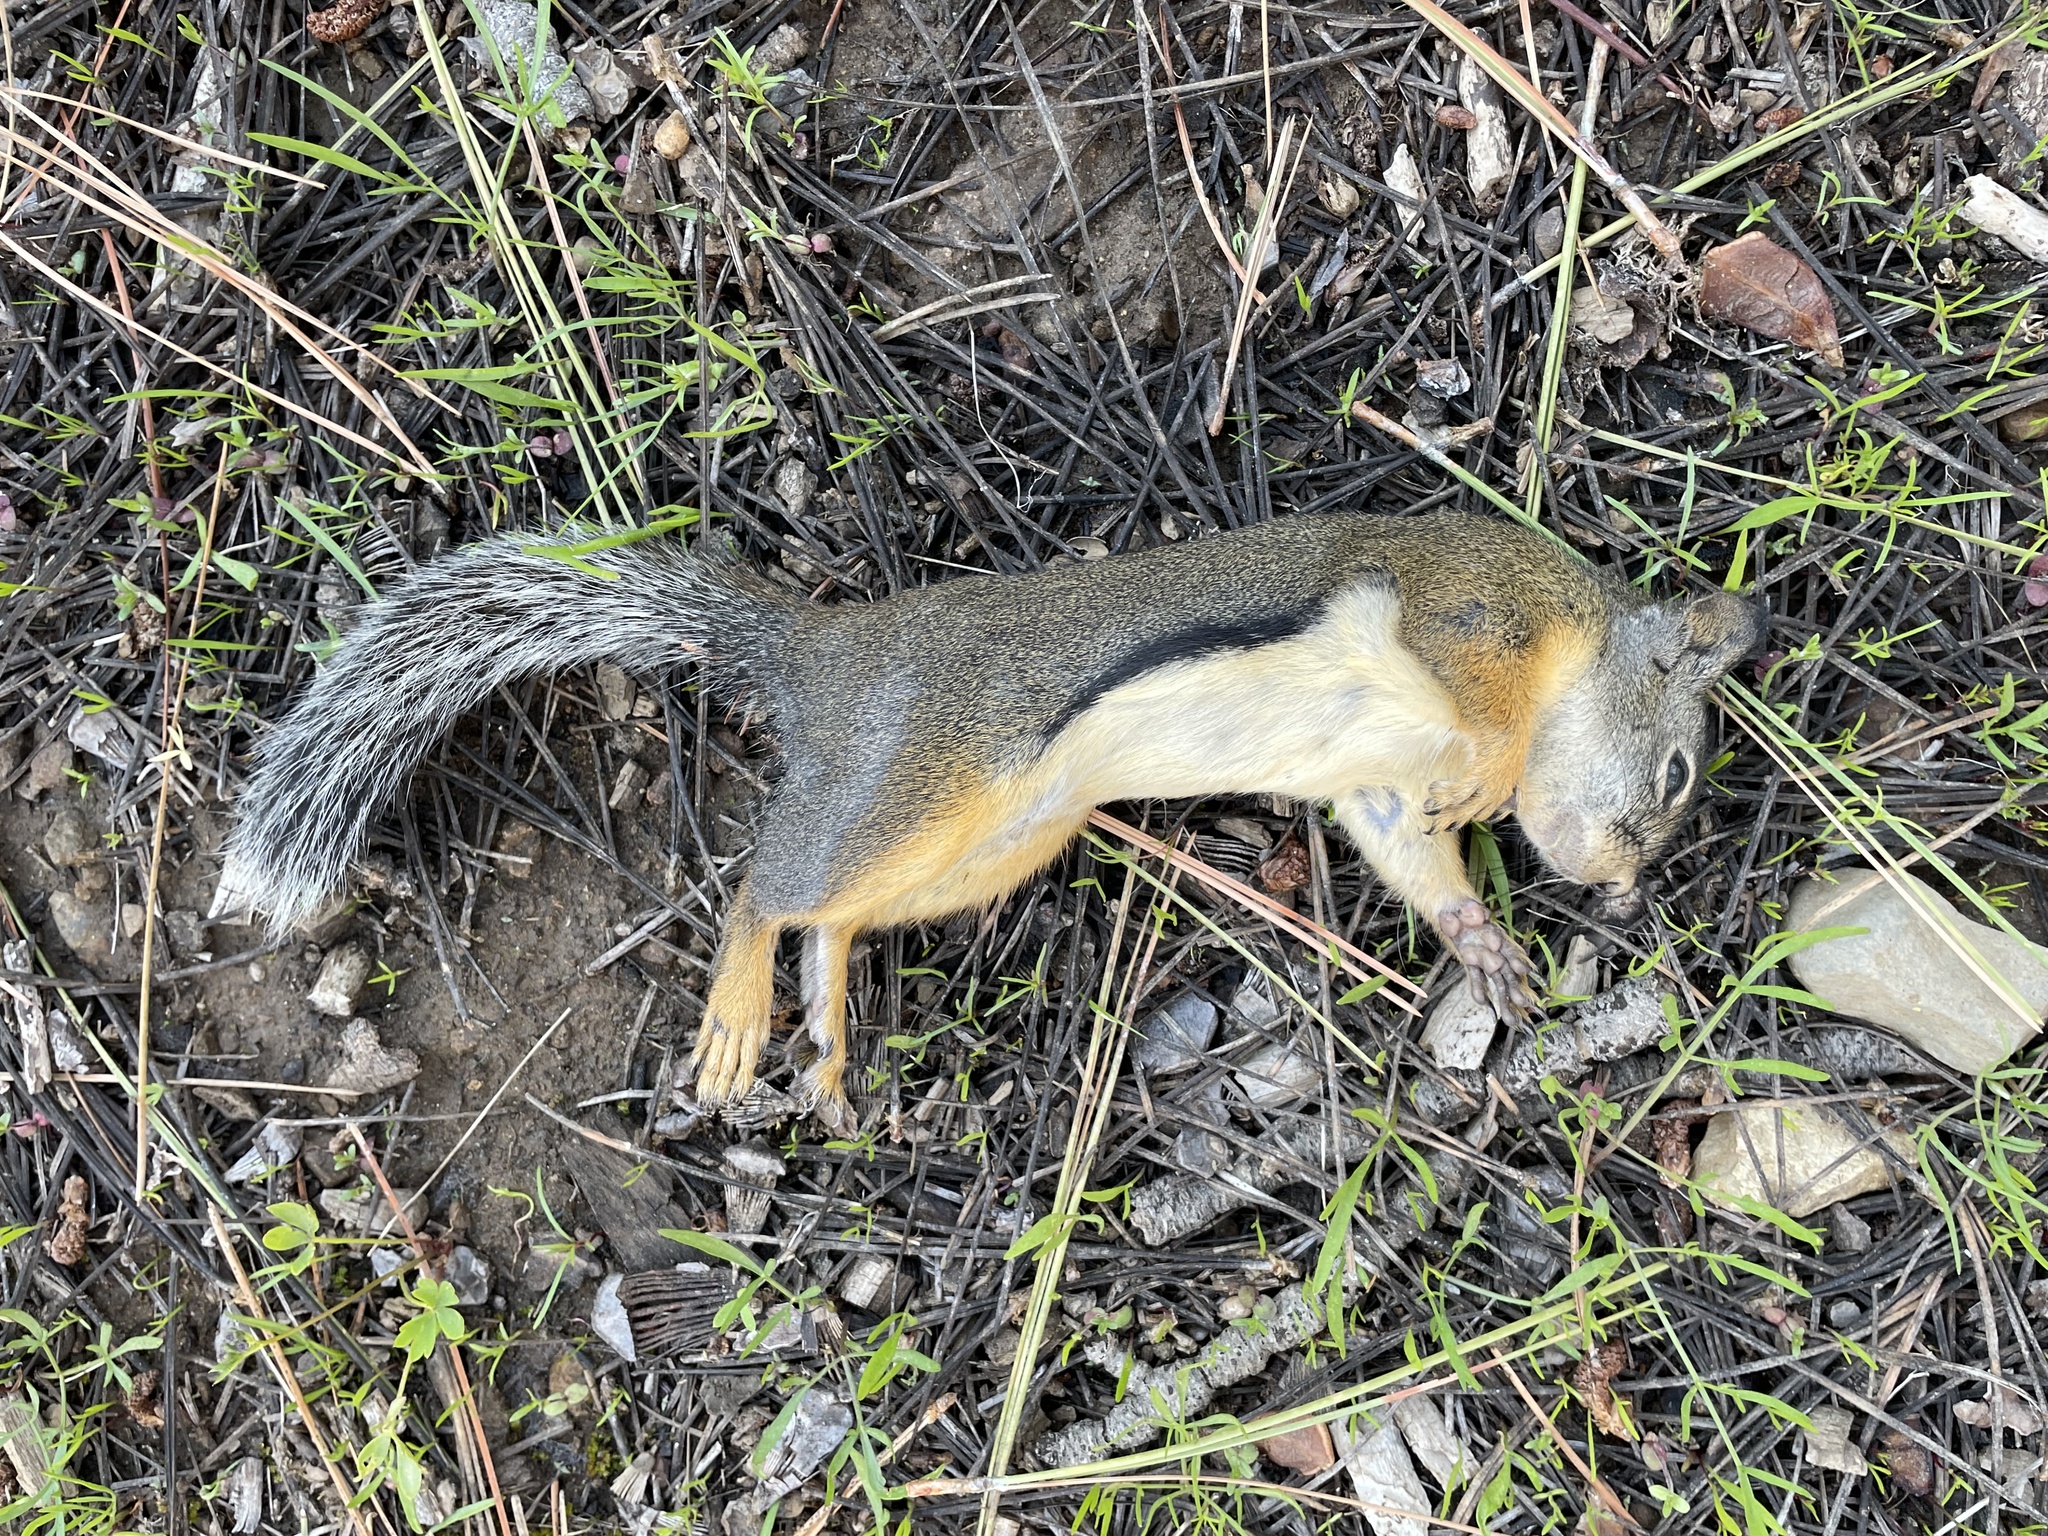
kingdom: Animalia
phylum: Chordata
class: Mammalia
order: Rodentia
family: Sciuridae
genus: Tamiasciurus
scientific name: Tamiasciurus douglasii
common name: Douglas's squirrel
